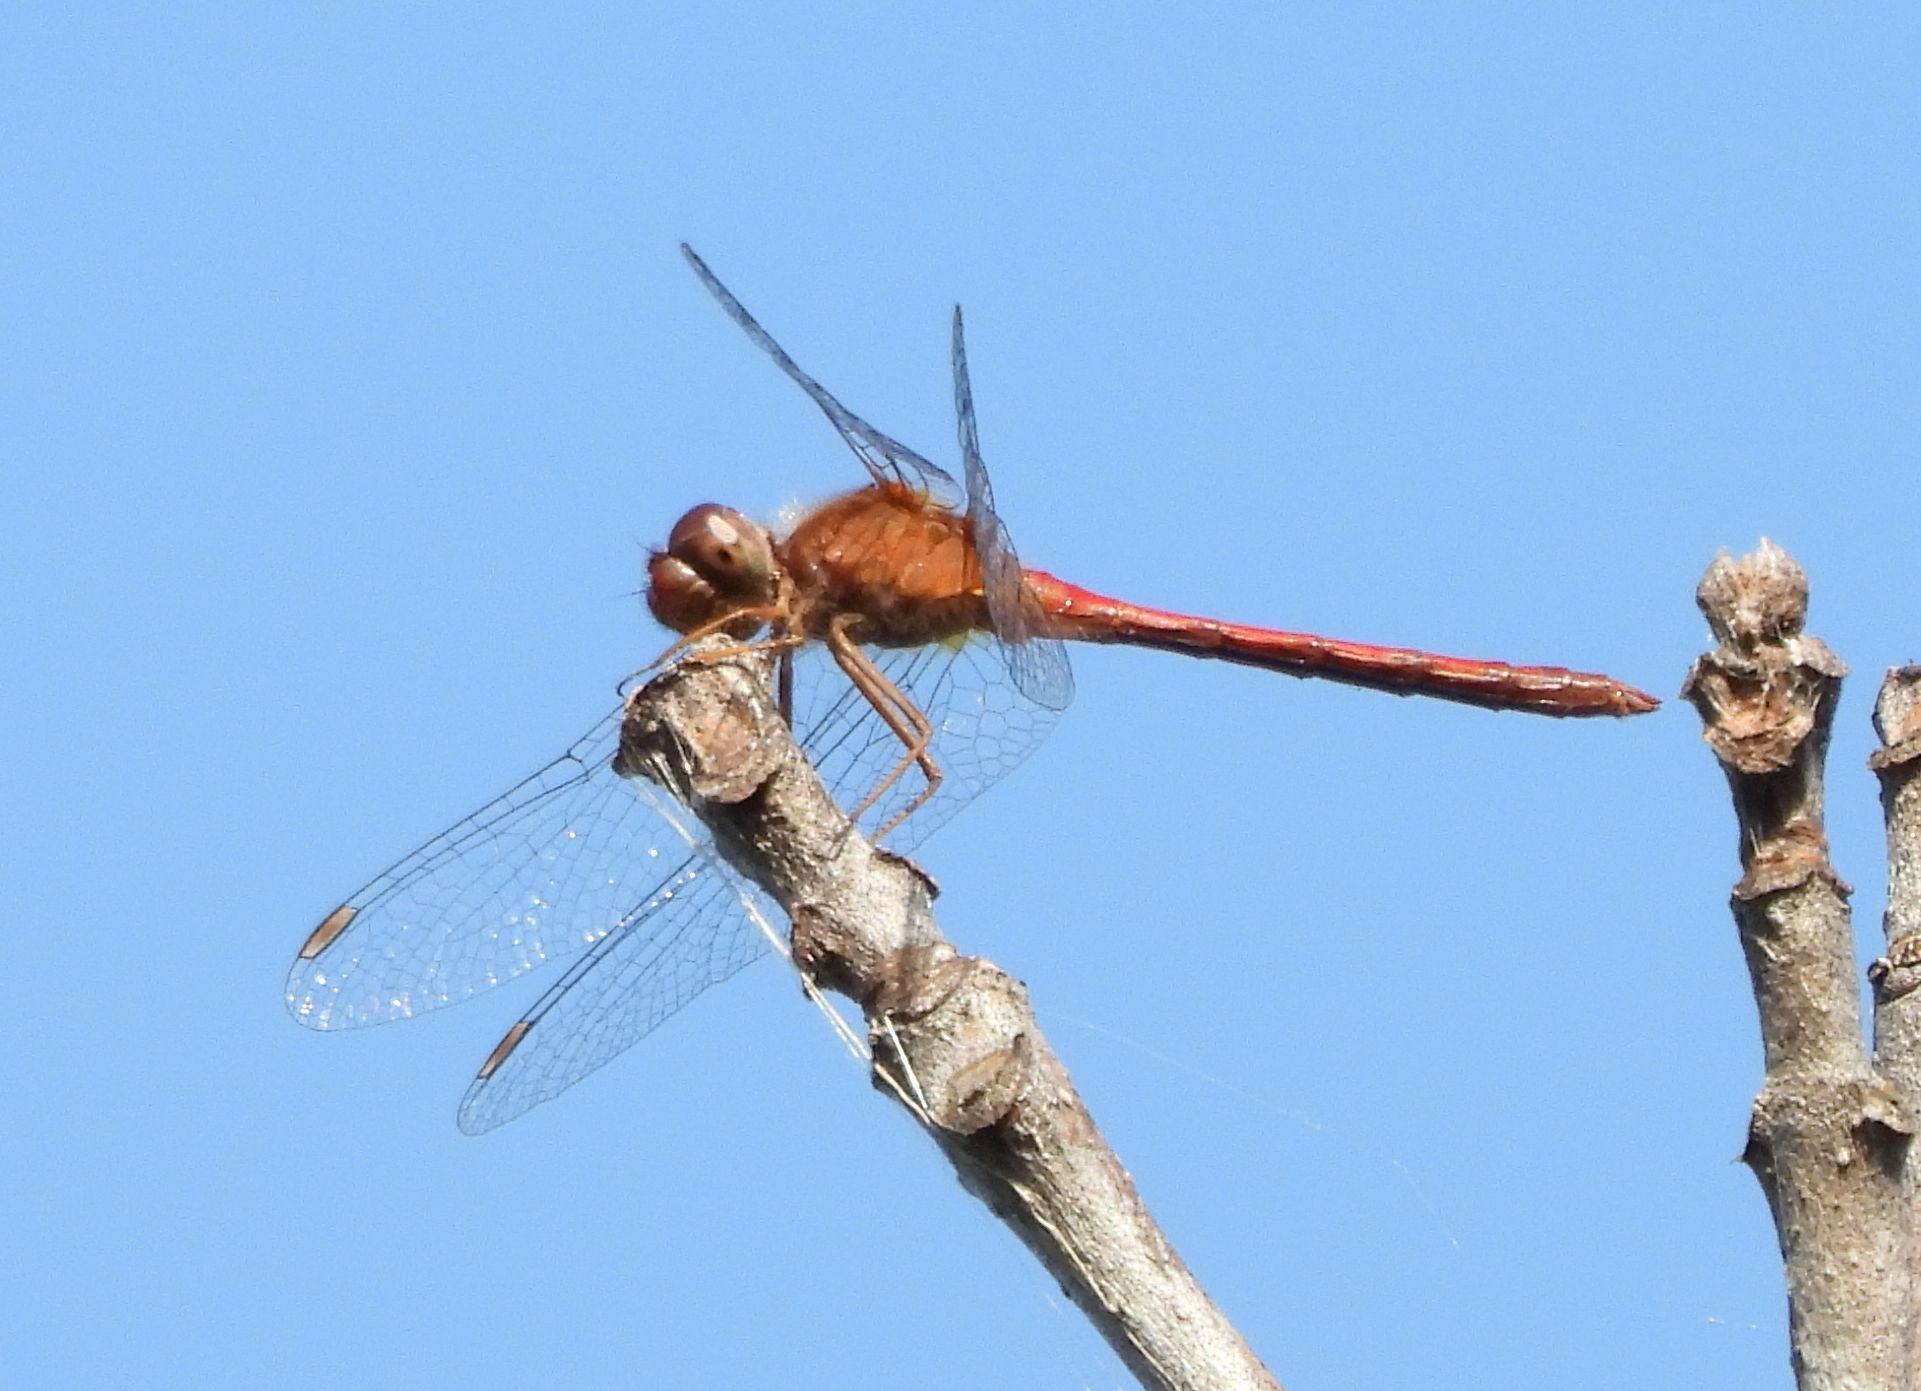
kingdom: Animalia
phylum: Arthropoda
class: Insecta
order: Odonata
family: Libellulidae
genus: Sympetrum
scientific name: Sympetrum vicinum
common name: Autumn meadowhawk
